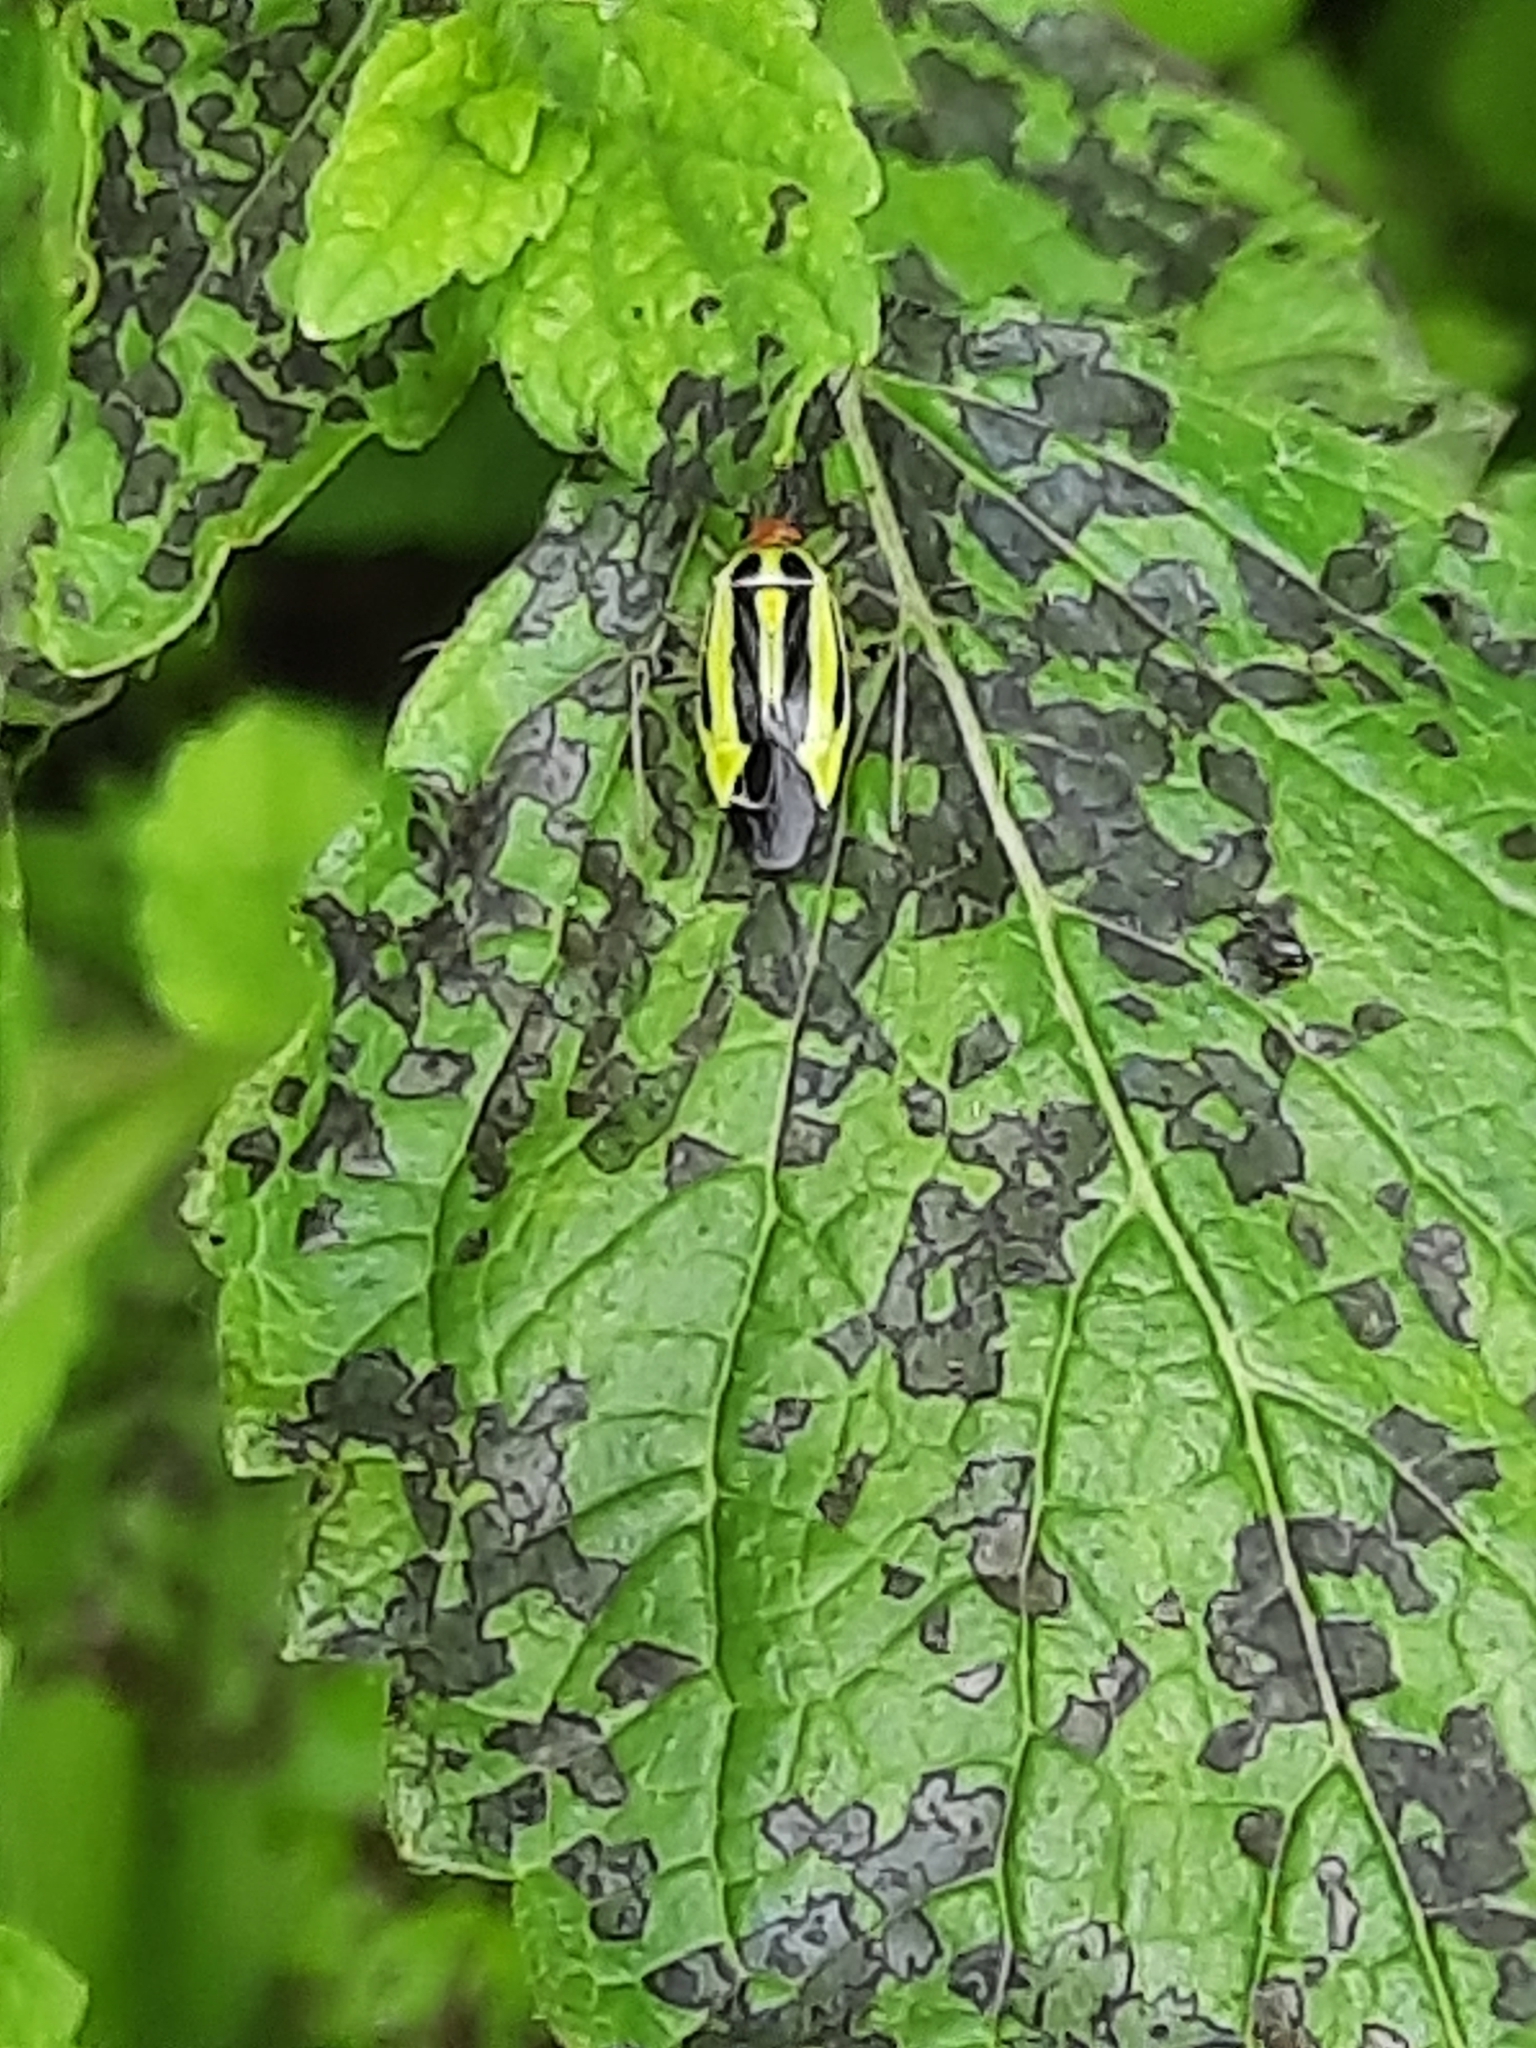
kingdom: Animalia
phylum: Arthropoda
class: Insecta
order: Hemiptera
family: Miridae
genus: Poecilocapsus
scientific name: Poecilocapsus lineatus
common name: Four-lined plant bug
